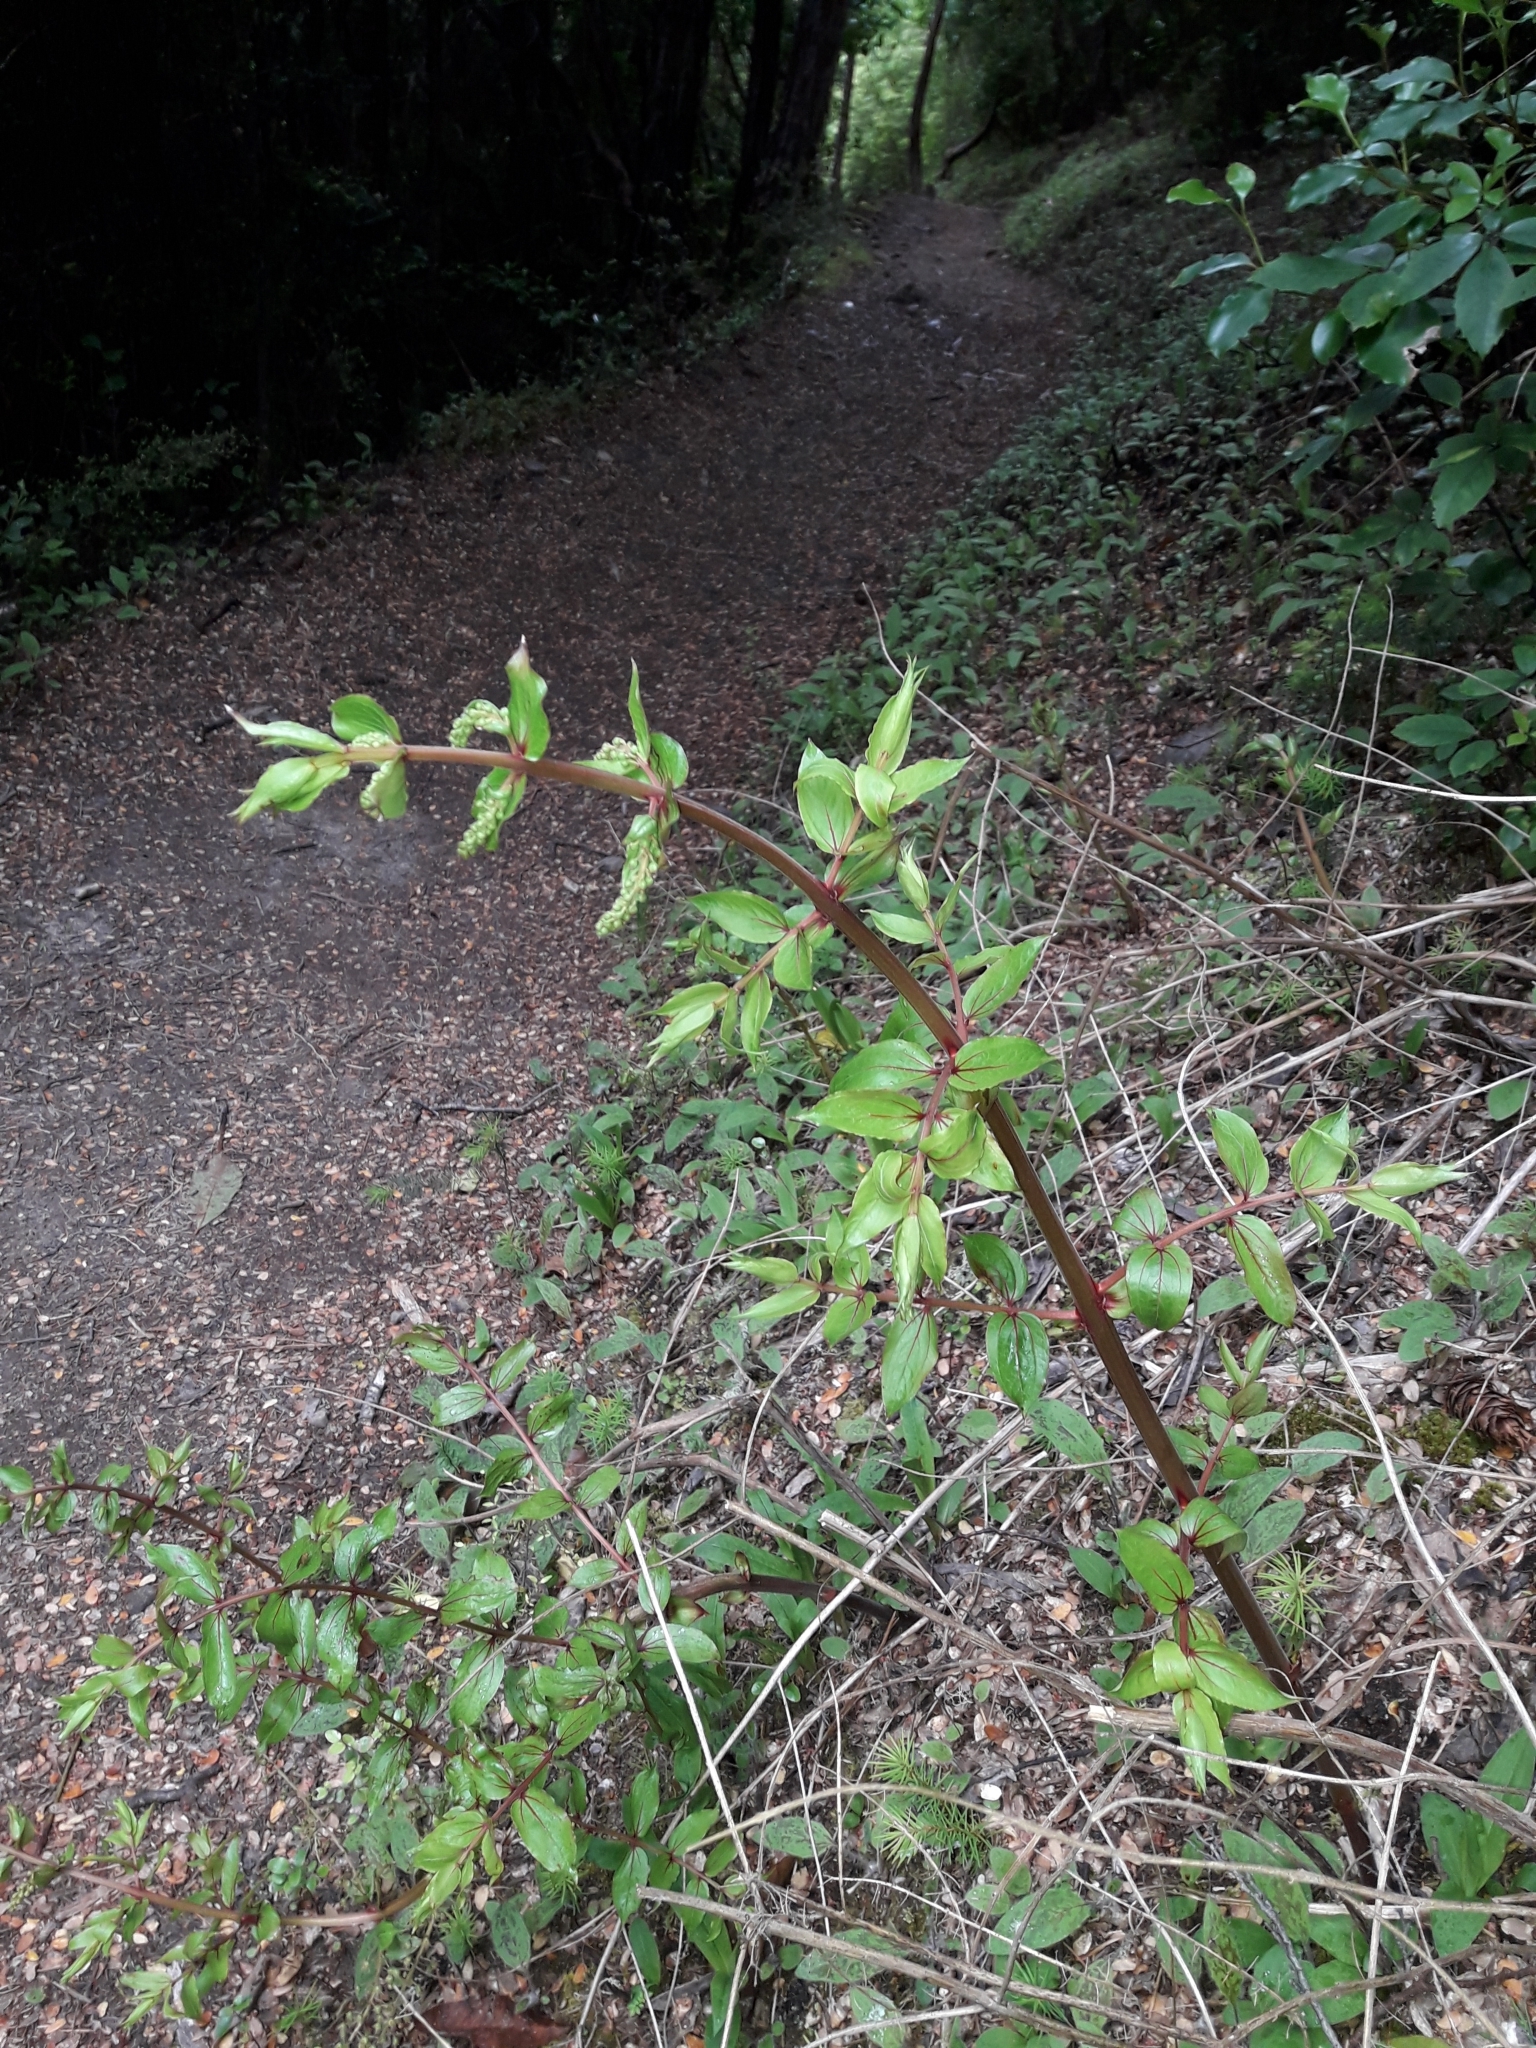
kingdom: Plantae
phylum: Tracheophyta
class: Magnoliopsida
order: Cucurbitales
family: Coriariaceae
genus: Coriaria
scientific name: Coriaria sarmentosa
